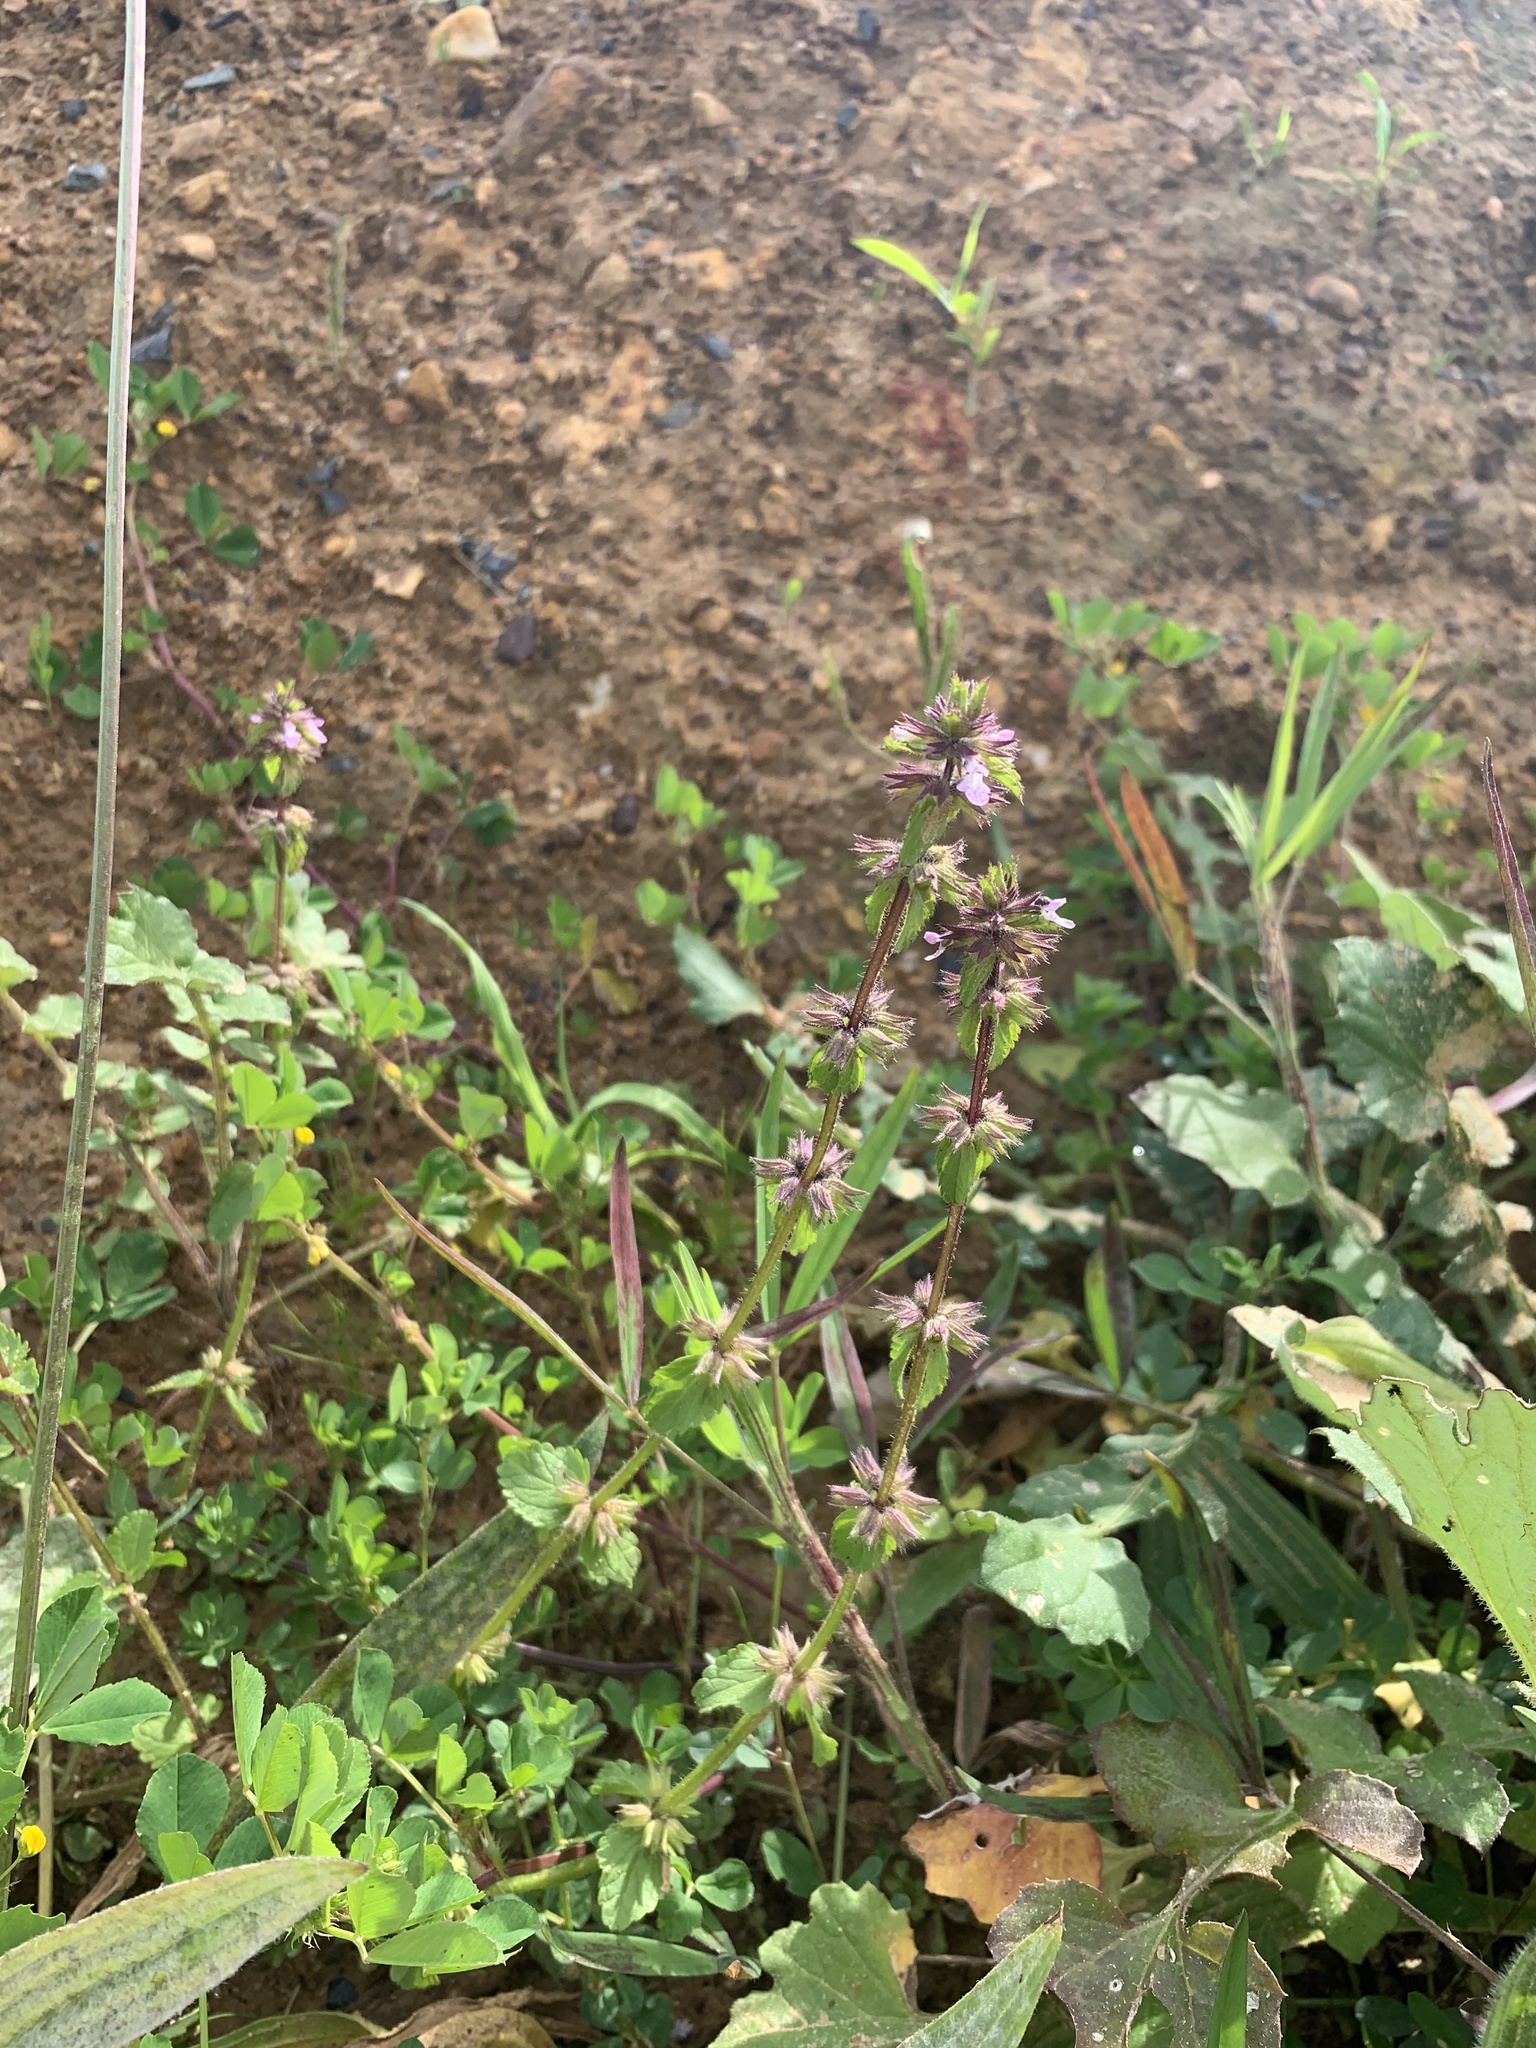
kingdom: Plantae
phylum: Tracheophyta
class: Magnoliopsida
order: Lamiales
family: Lamiaceae
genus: Stachys
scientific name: Stachys arvensis
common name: Field woundwort
